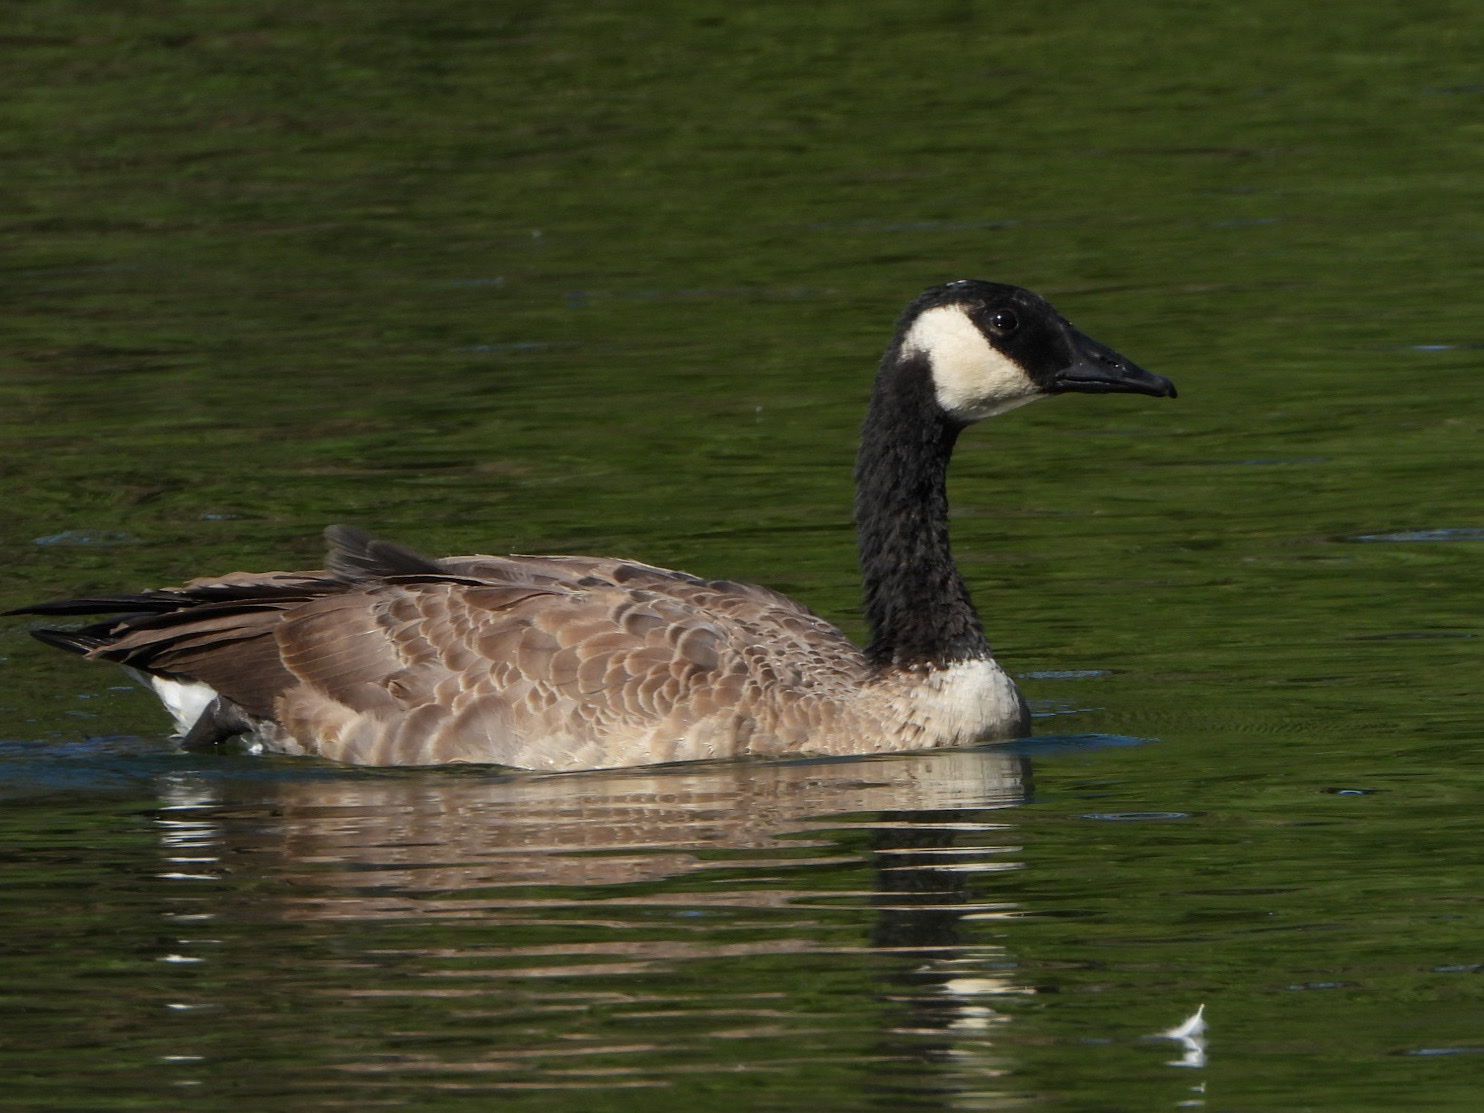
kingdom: Animalia
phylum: Chordata
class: Aves
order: Anseriformes
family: Anatidae
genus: Branta
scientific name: Branta canadensis
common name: Canada goose
